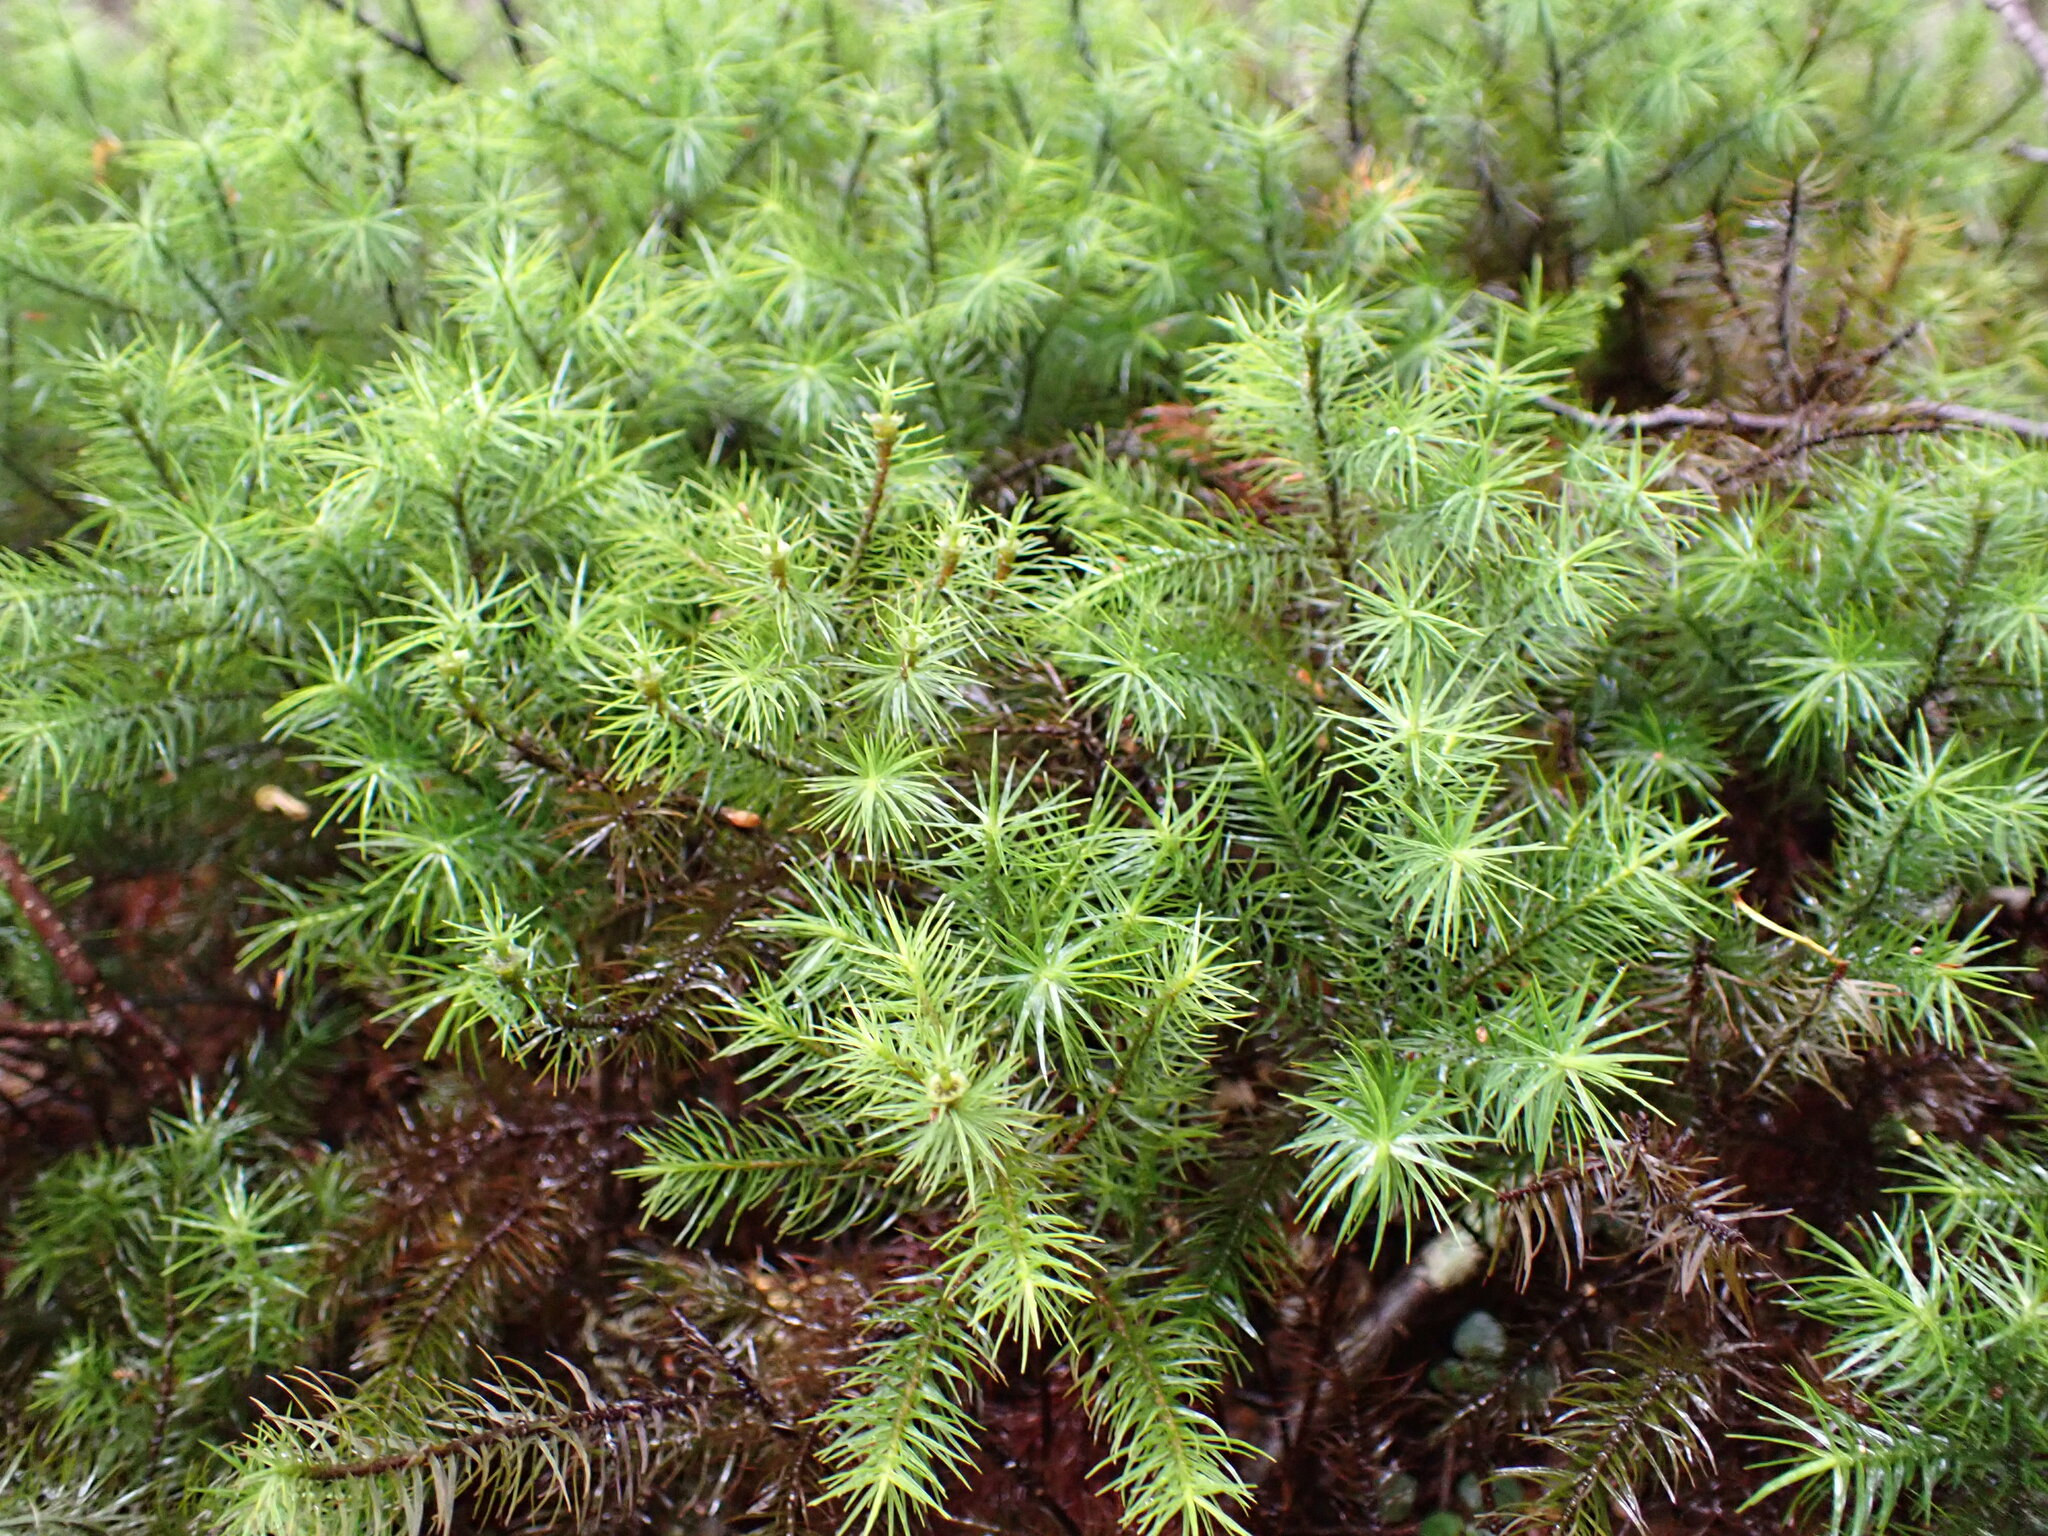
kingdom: Plantae
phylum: Bryophyta
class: Polytrichopsida
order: Polytrichales
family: Polytrichaceae
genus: Dendroligotrichum
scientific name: Dendroligotrichum tongariroense
